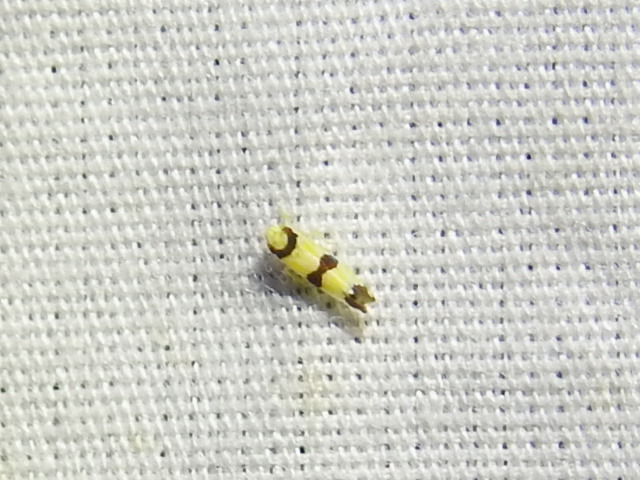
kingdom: Animalia
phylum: Arthropoda
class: Insecta
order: Hemiptera
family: Cicadellidae
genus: Erythroneura
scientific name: Erythroneura calycula
